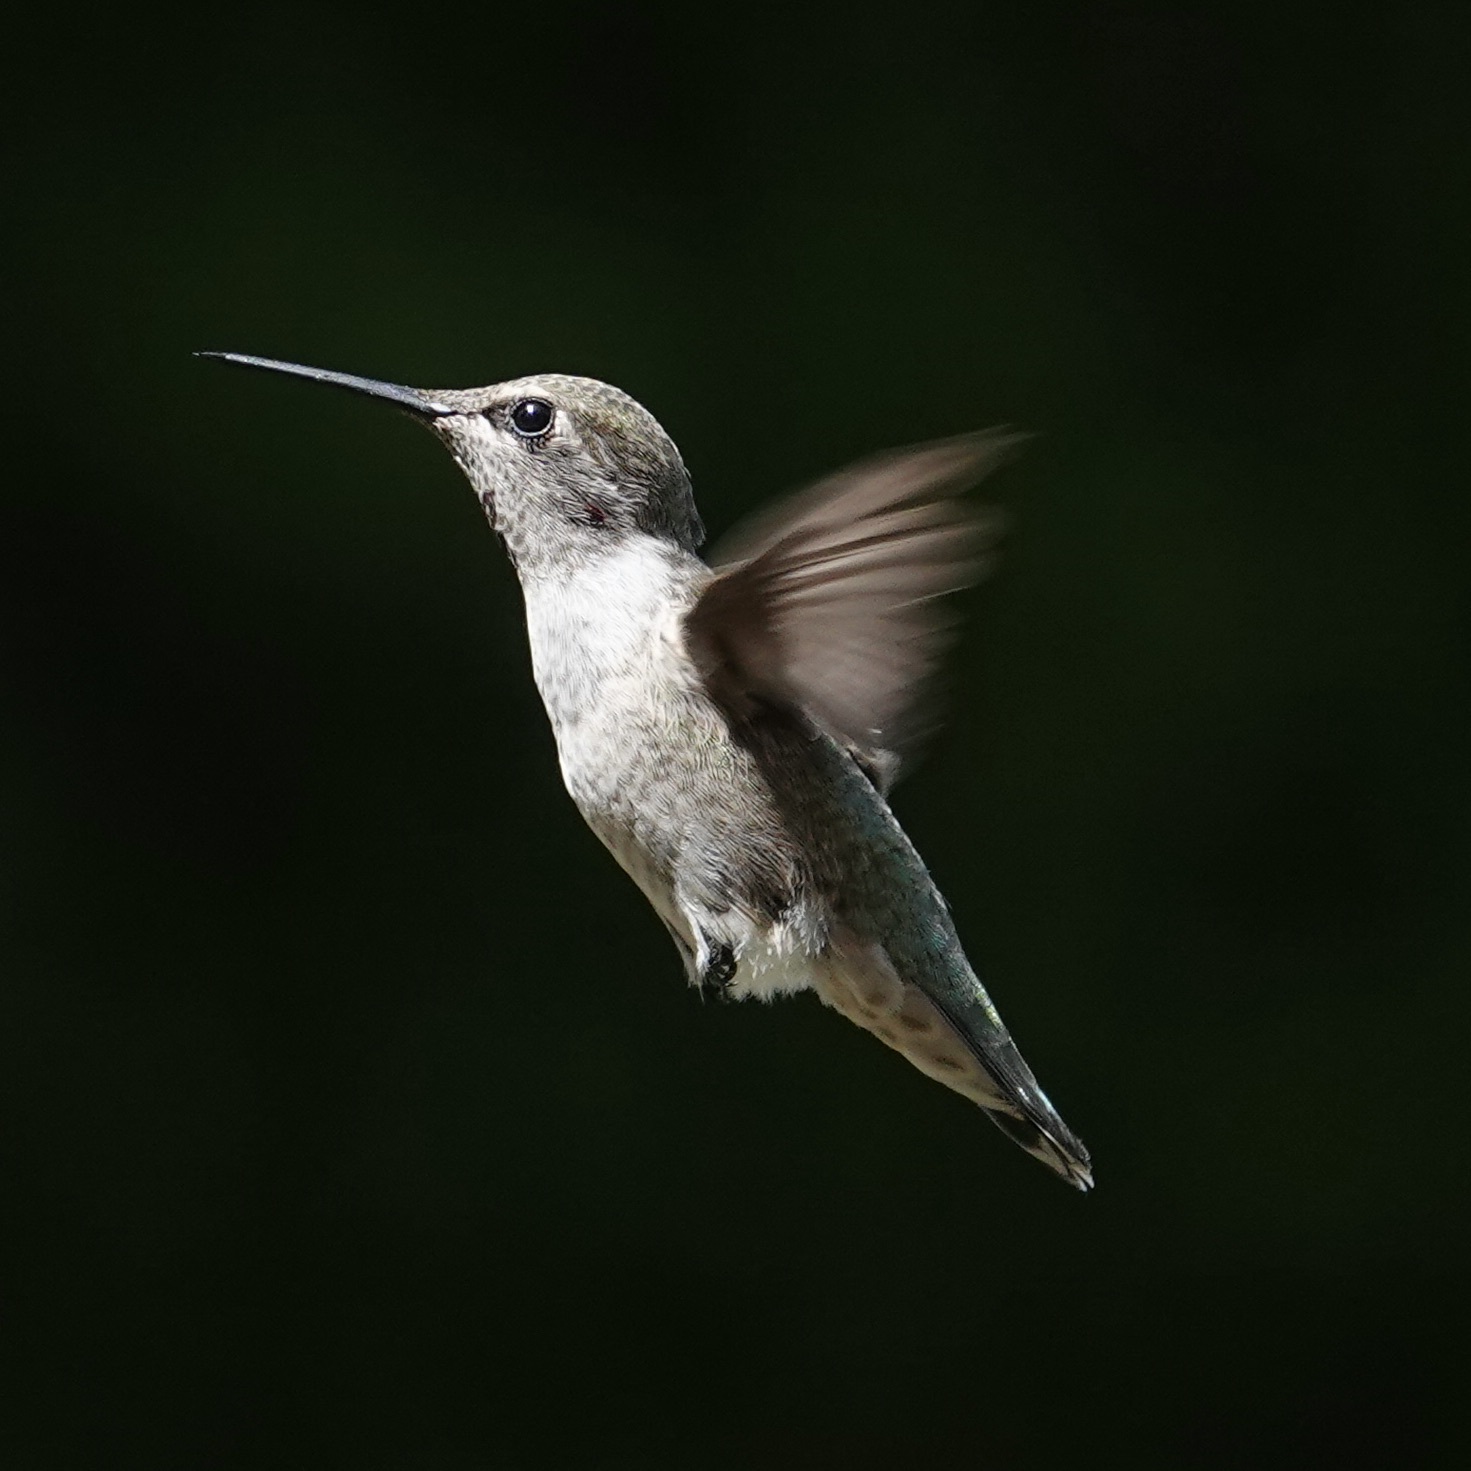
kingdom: Animalia
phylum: Chordata
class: Aves
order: Apodiformes
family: Trochilidae
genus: Calypte
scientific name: Calypte anna
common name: Anna's hummingbird
